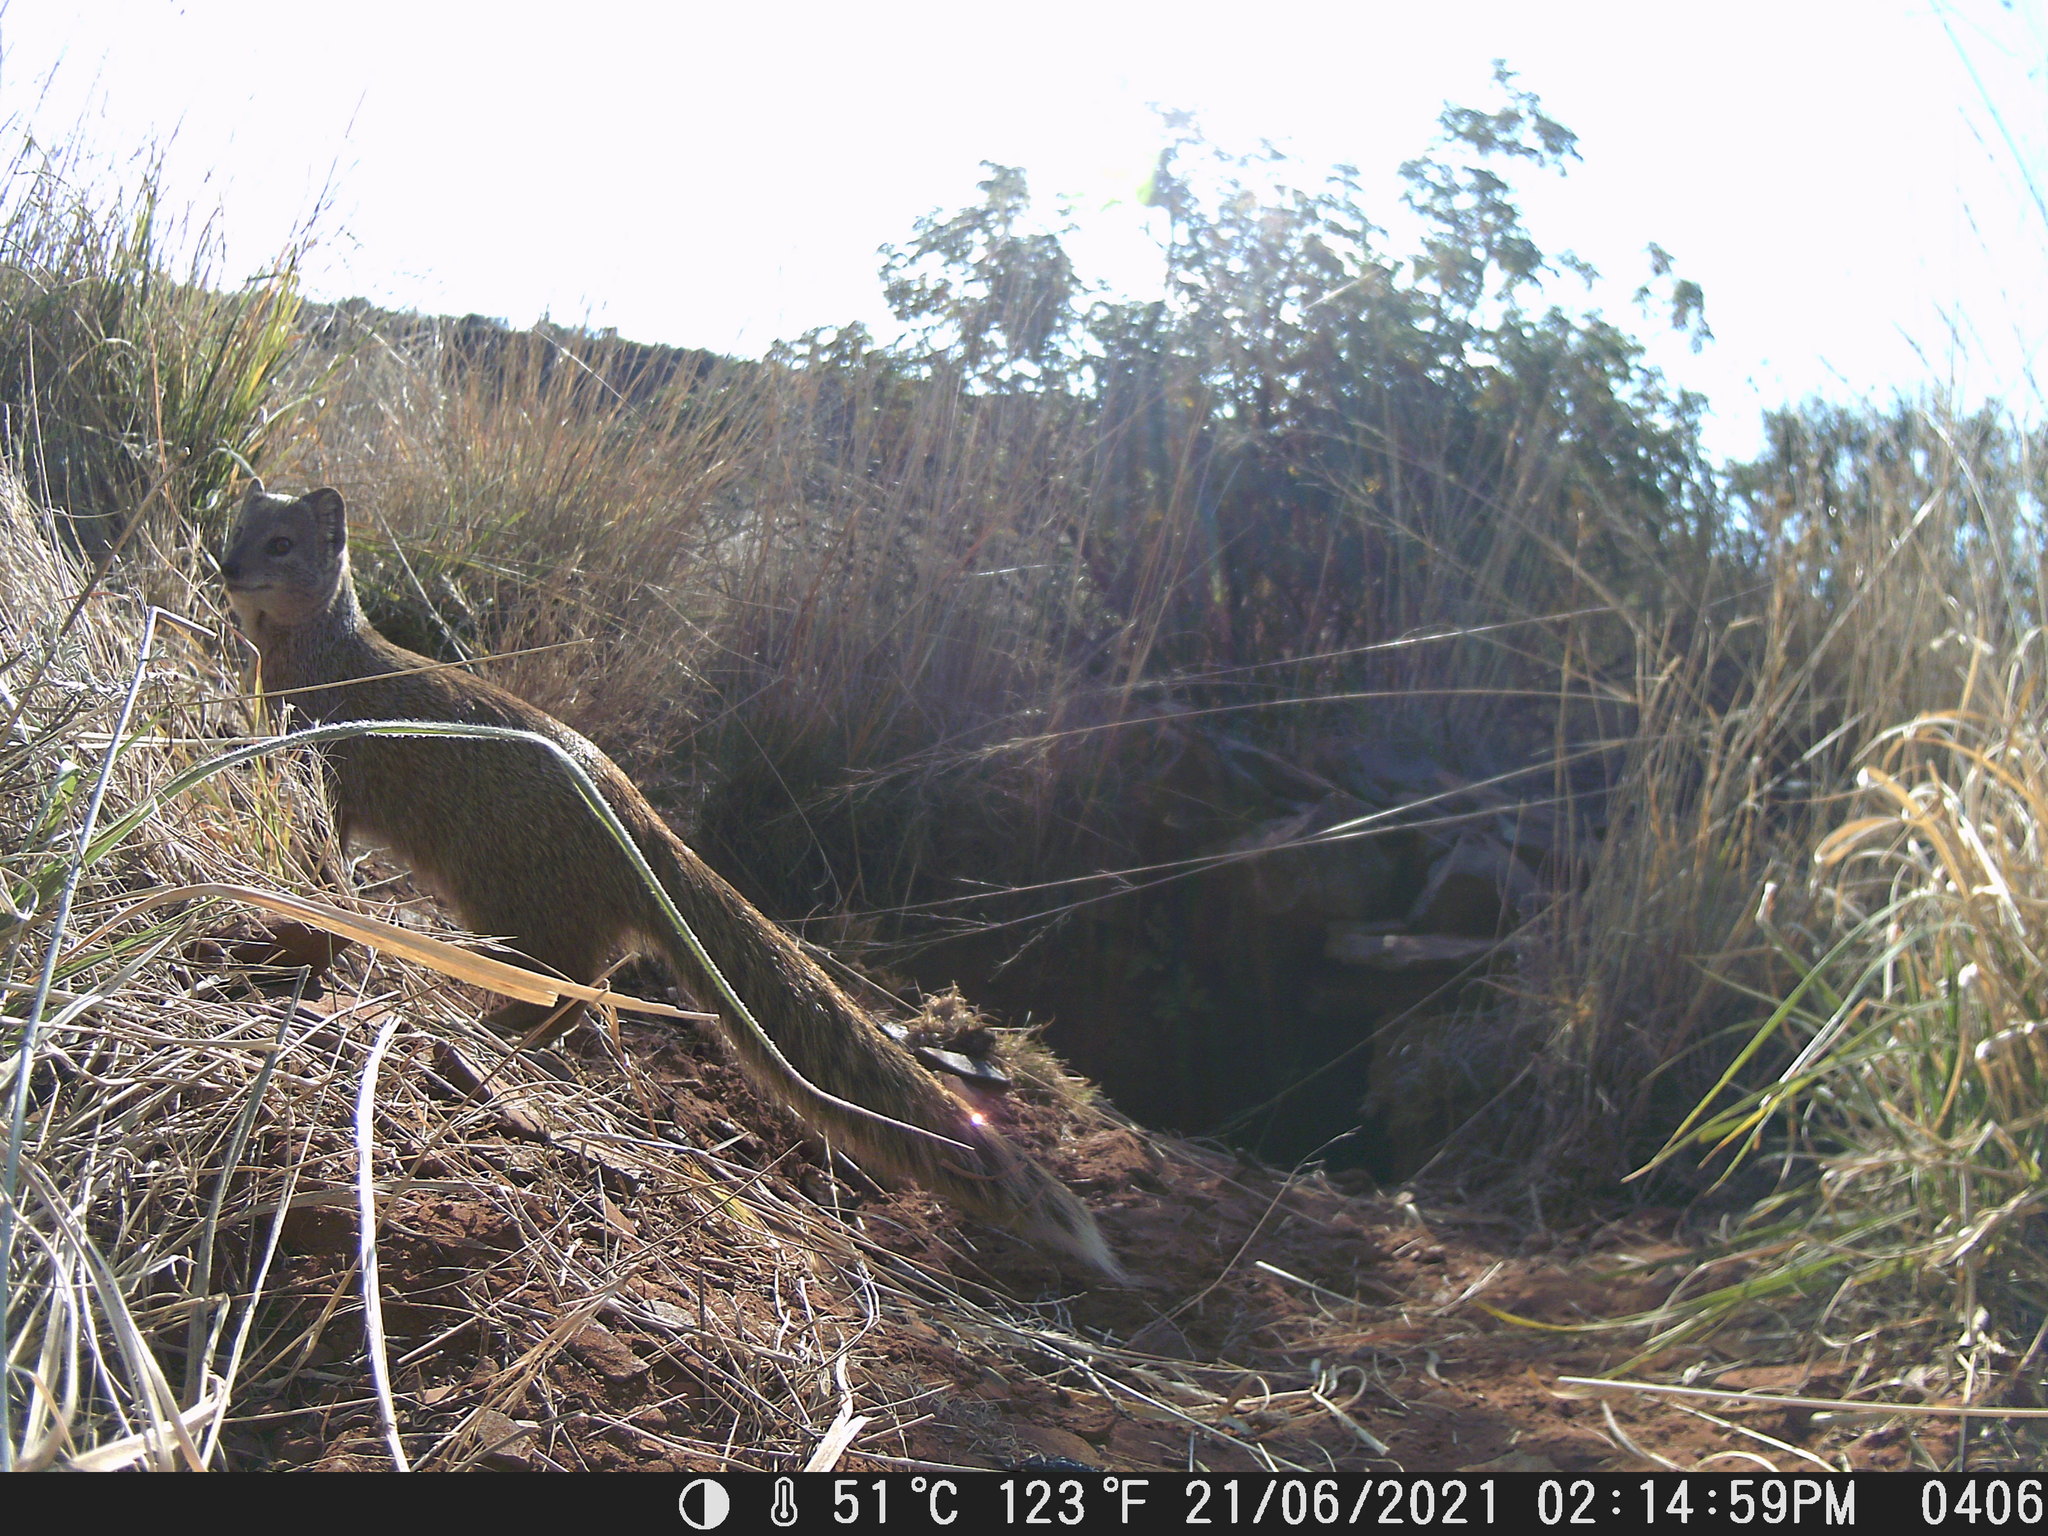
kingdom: Animalia
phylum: Chordata
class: Mammalia
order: Carnivora
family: Herpestidae
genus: Cynictis
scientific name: Cynictis penicillata
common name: Yellow mongoose
